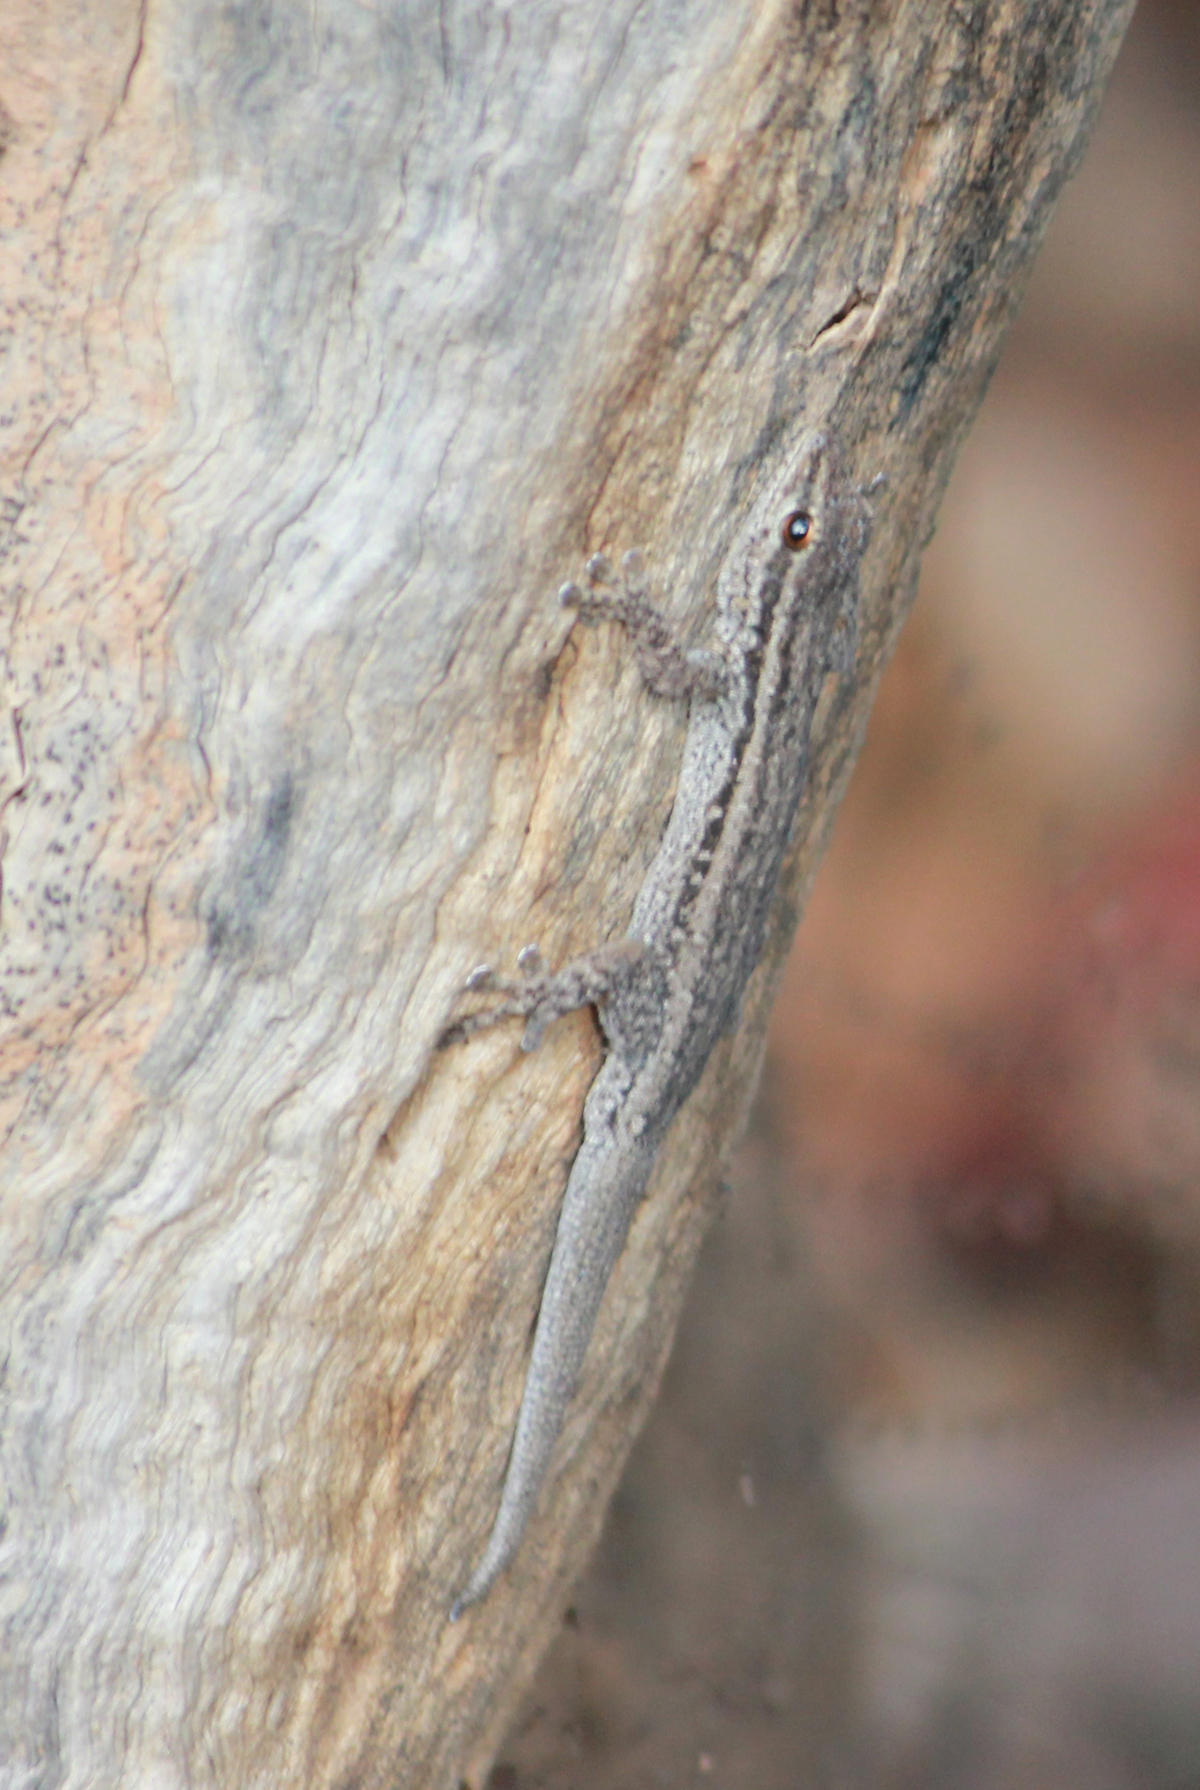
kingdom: Animalia
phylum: Chordata
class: Squamata
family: Gekkonidae
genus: Lygodactylus
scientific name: Lygodactylus capensis
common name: Cape dwarf gecko
